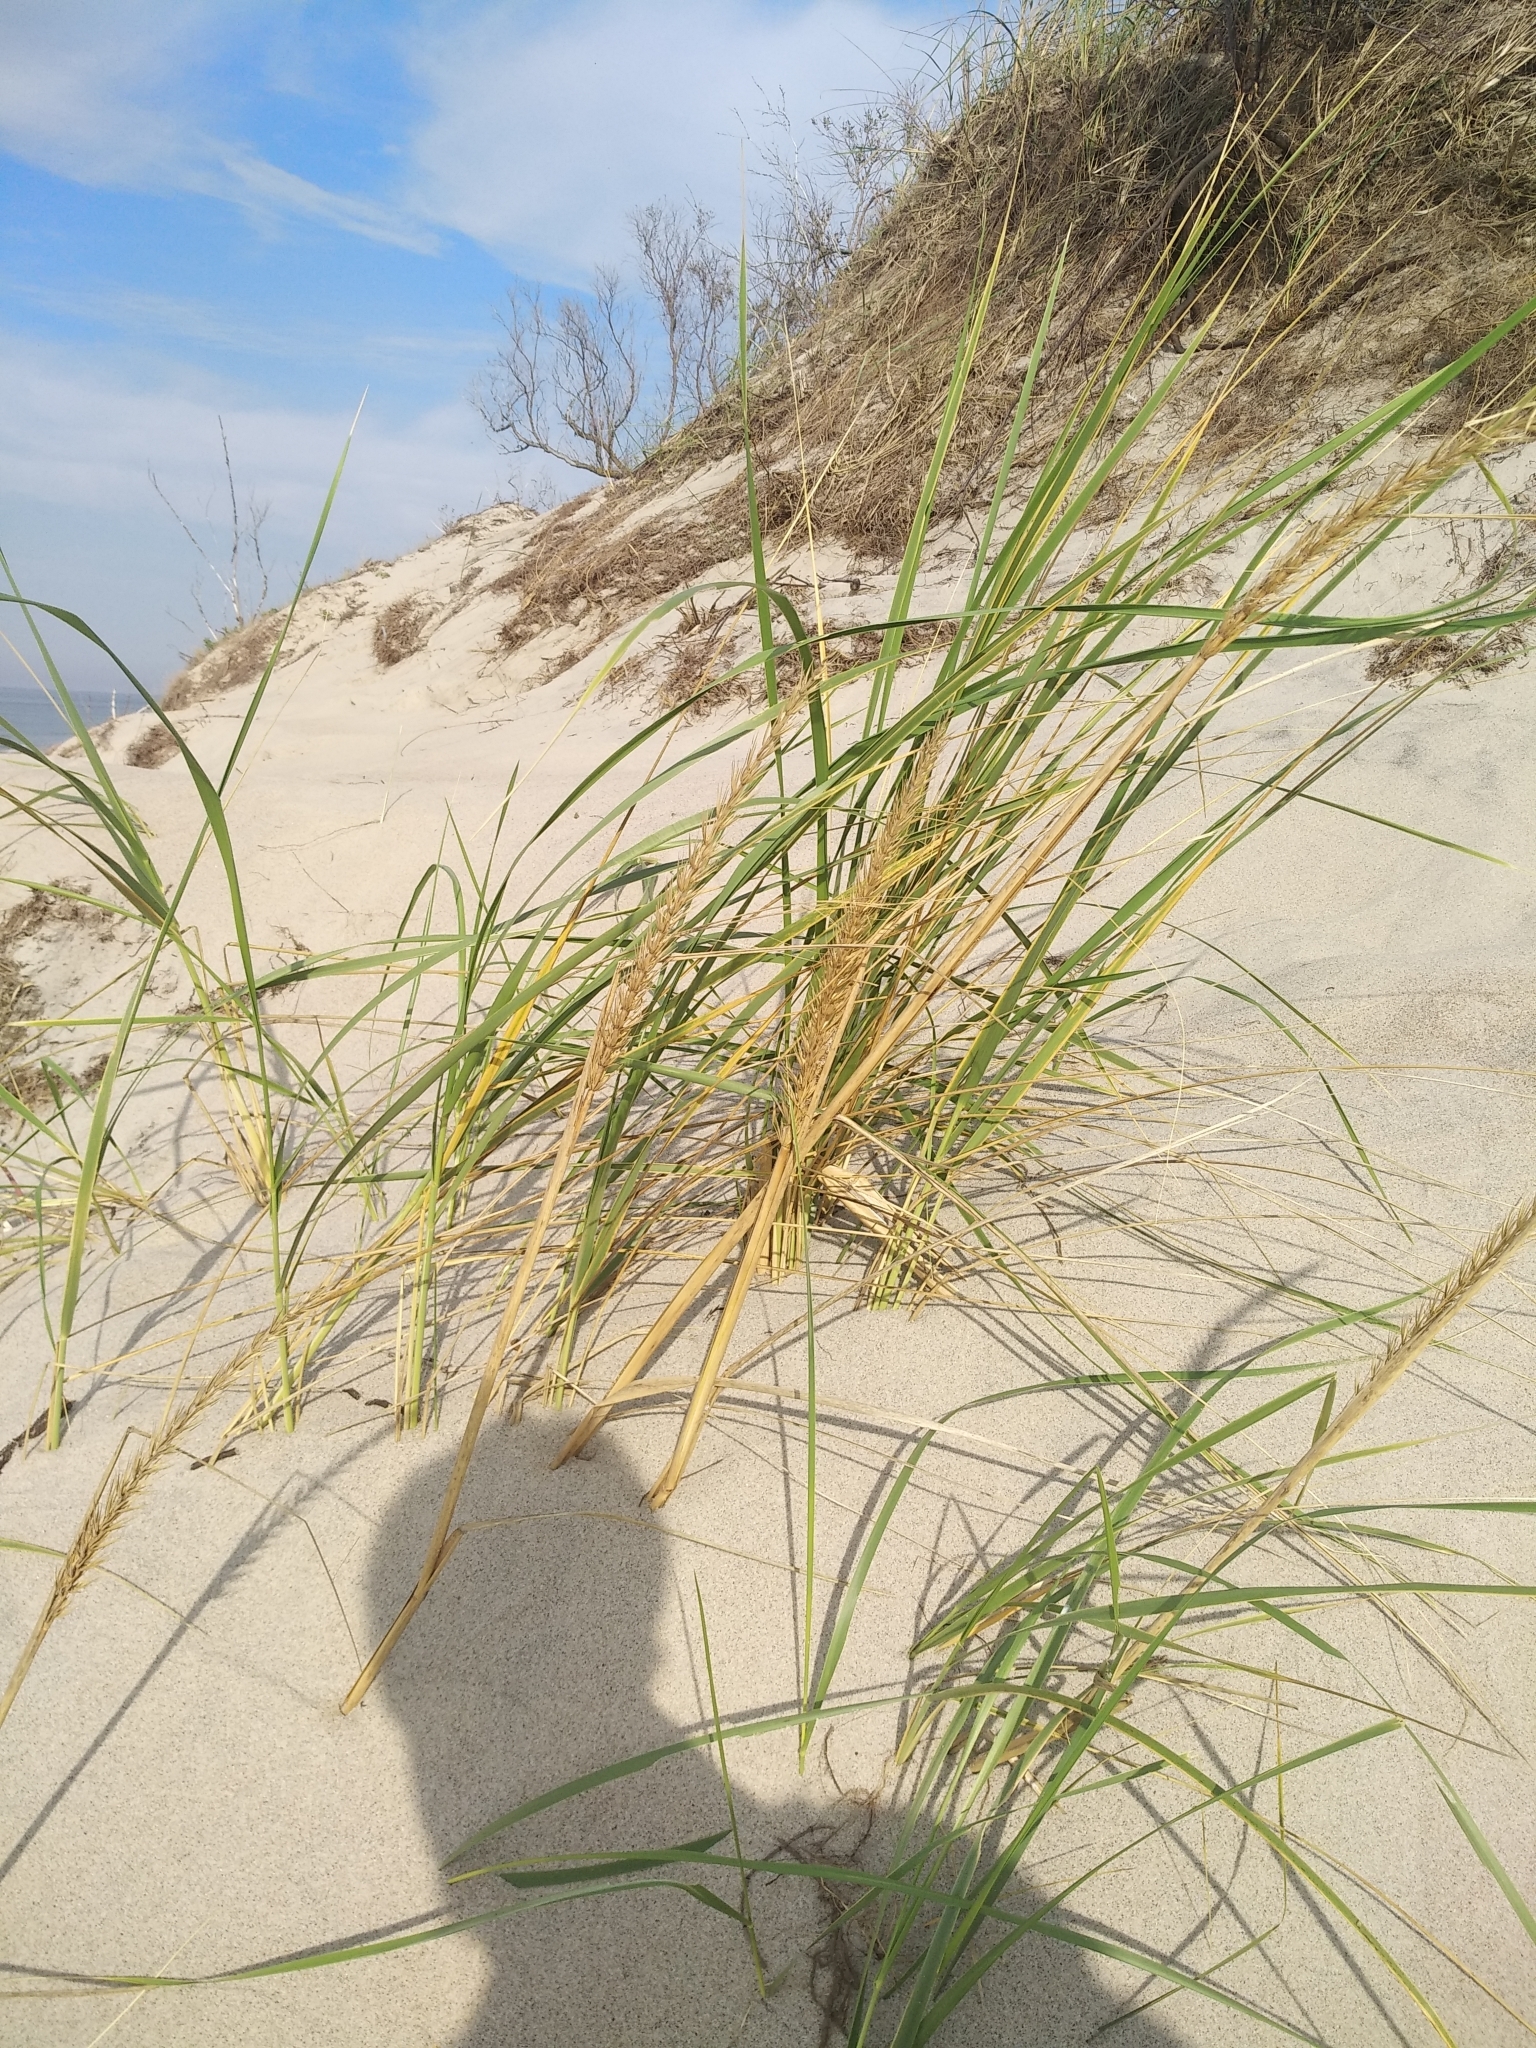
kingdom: Plantae
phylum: Tracheophyta
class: Liliopsida
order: Poales
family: Poaceae
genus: Leymus
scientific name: Leymus arenarius
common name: Lyme-grass
